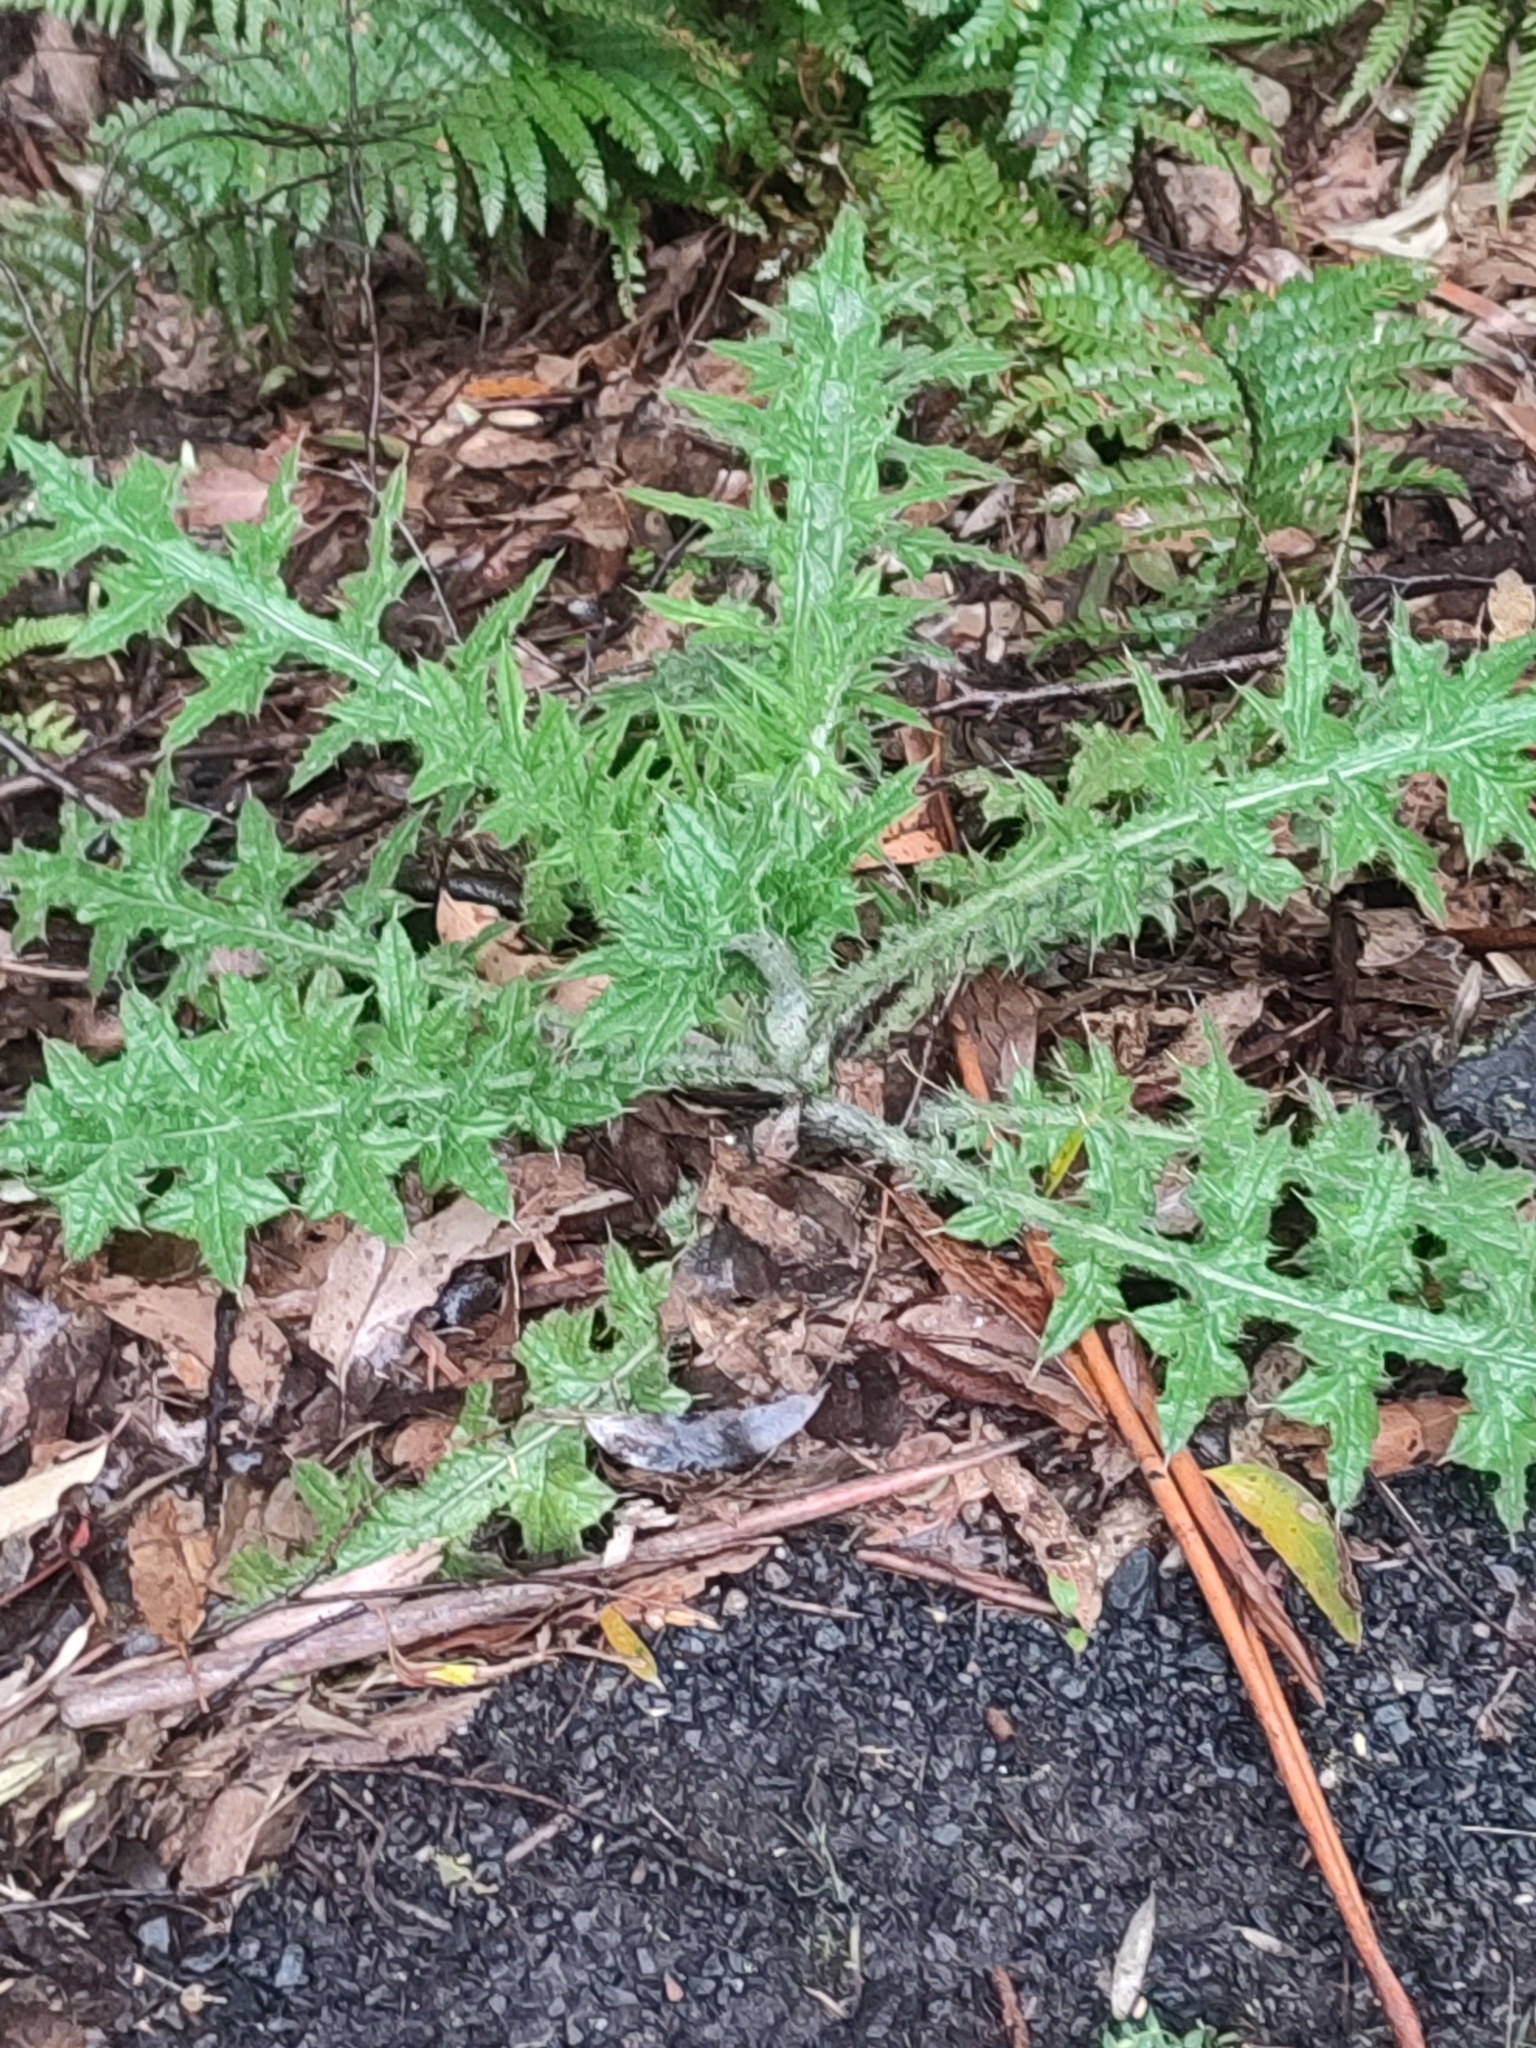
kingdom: Plantae
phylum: Tracheophyta
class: Magnoliopsida
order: Asterales
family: Asteraceae
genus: Cirsium
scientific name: Cirsium vulgare
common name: Bull thistle
